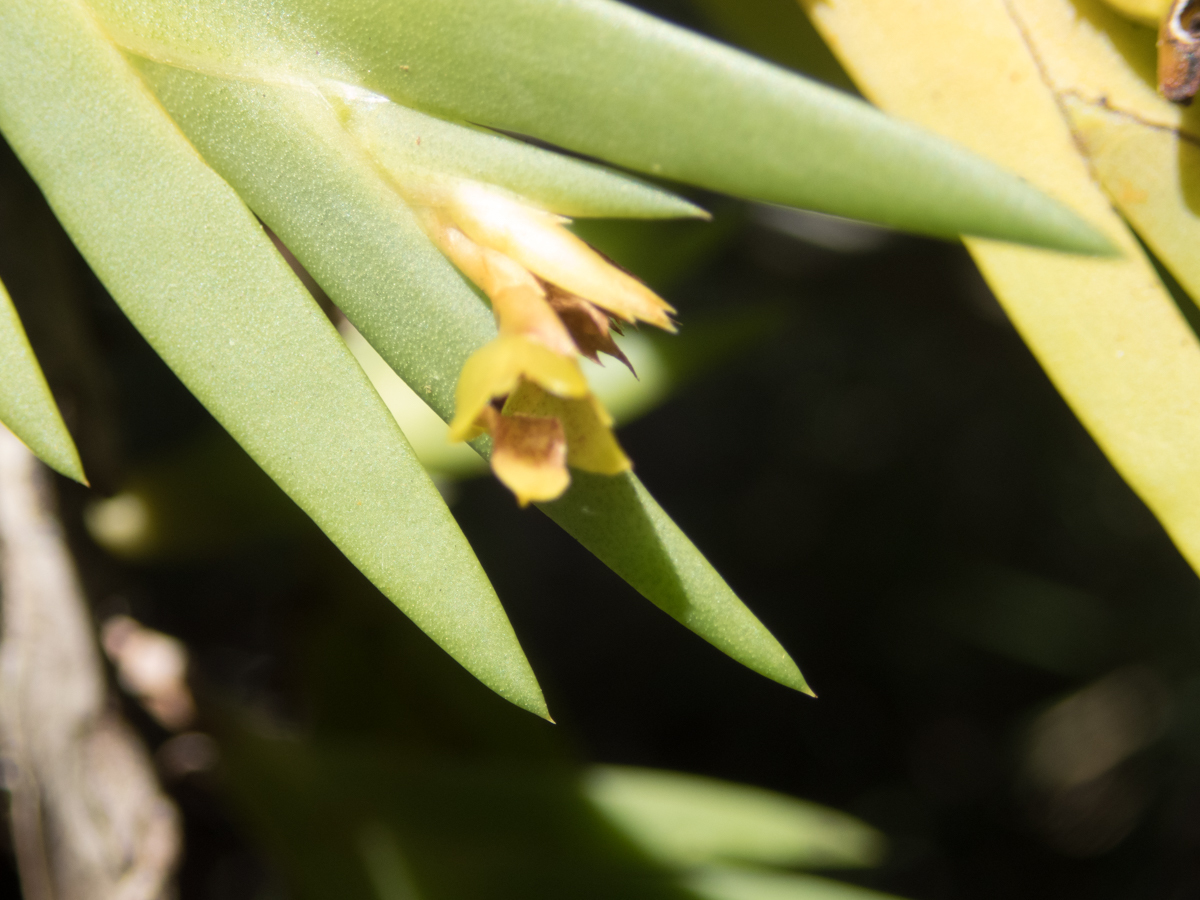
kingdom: Plantae
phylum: Tracheophyta
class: Liliopsida
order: Asparagales
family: Orchidaceae
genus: Oxystophyllum
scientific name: Oxystophyllum carnosum
